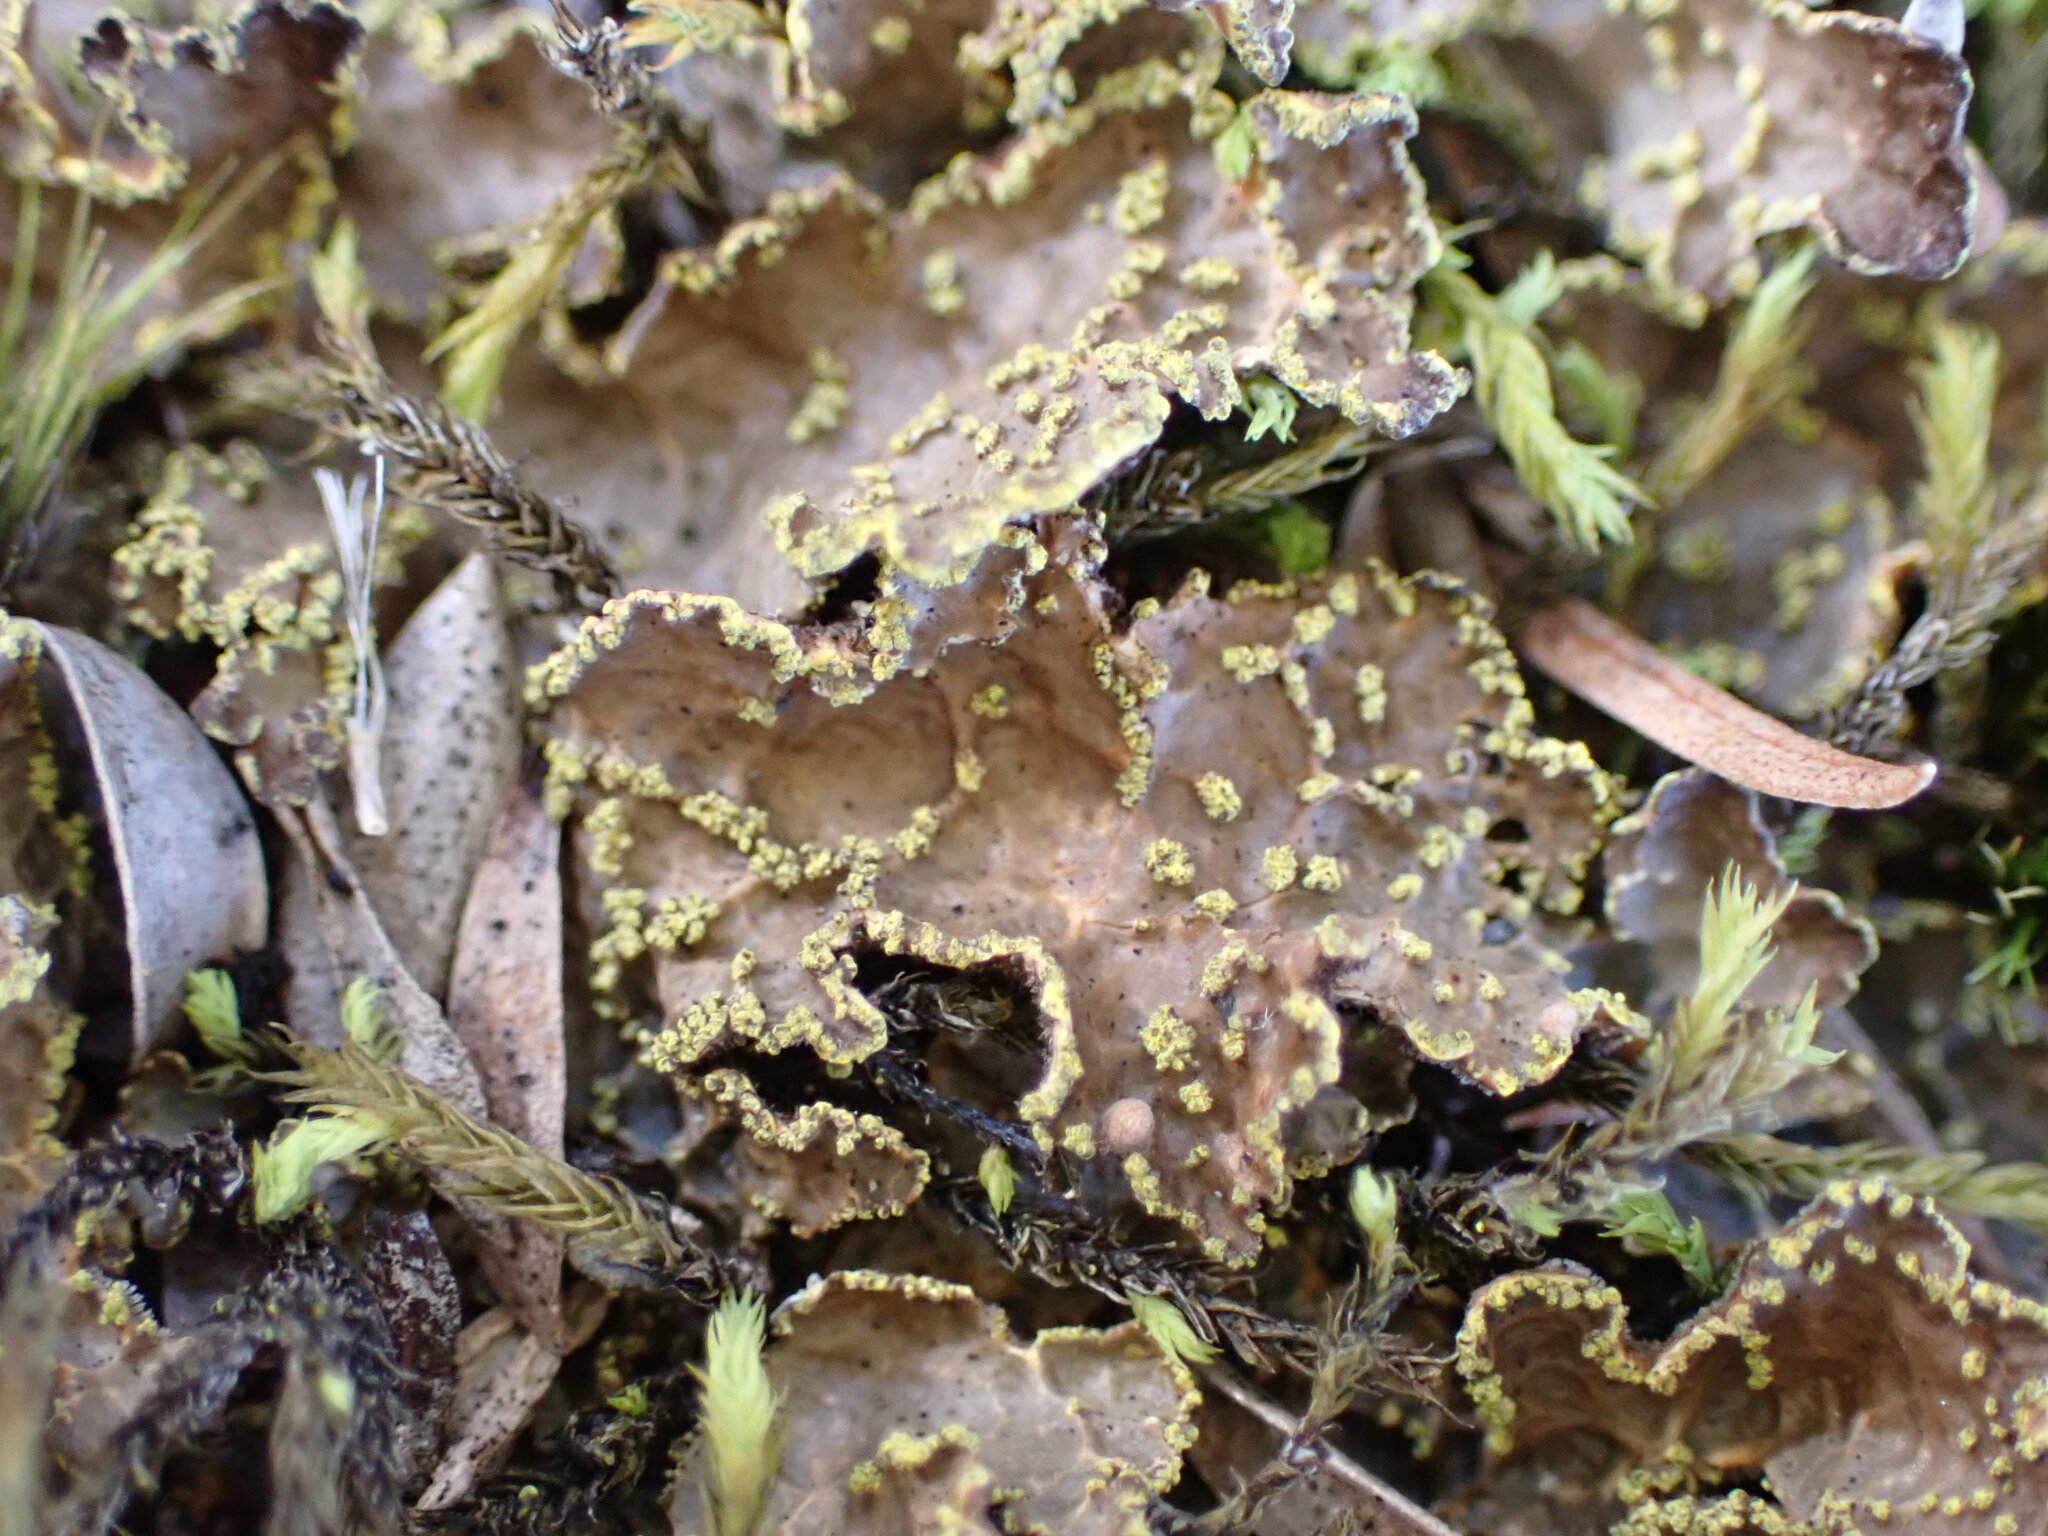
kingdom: Fungi
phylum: Ascomycota
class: Lecanoromycetes
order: Peltigerales
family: Lobariaceae
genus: Pseudocyphellaria
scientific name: Pseudocyphellaria crocata
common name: Golden specklebelly
